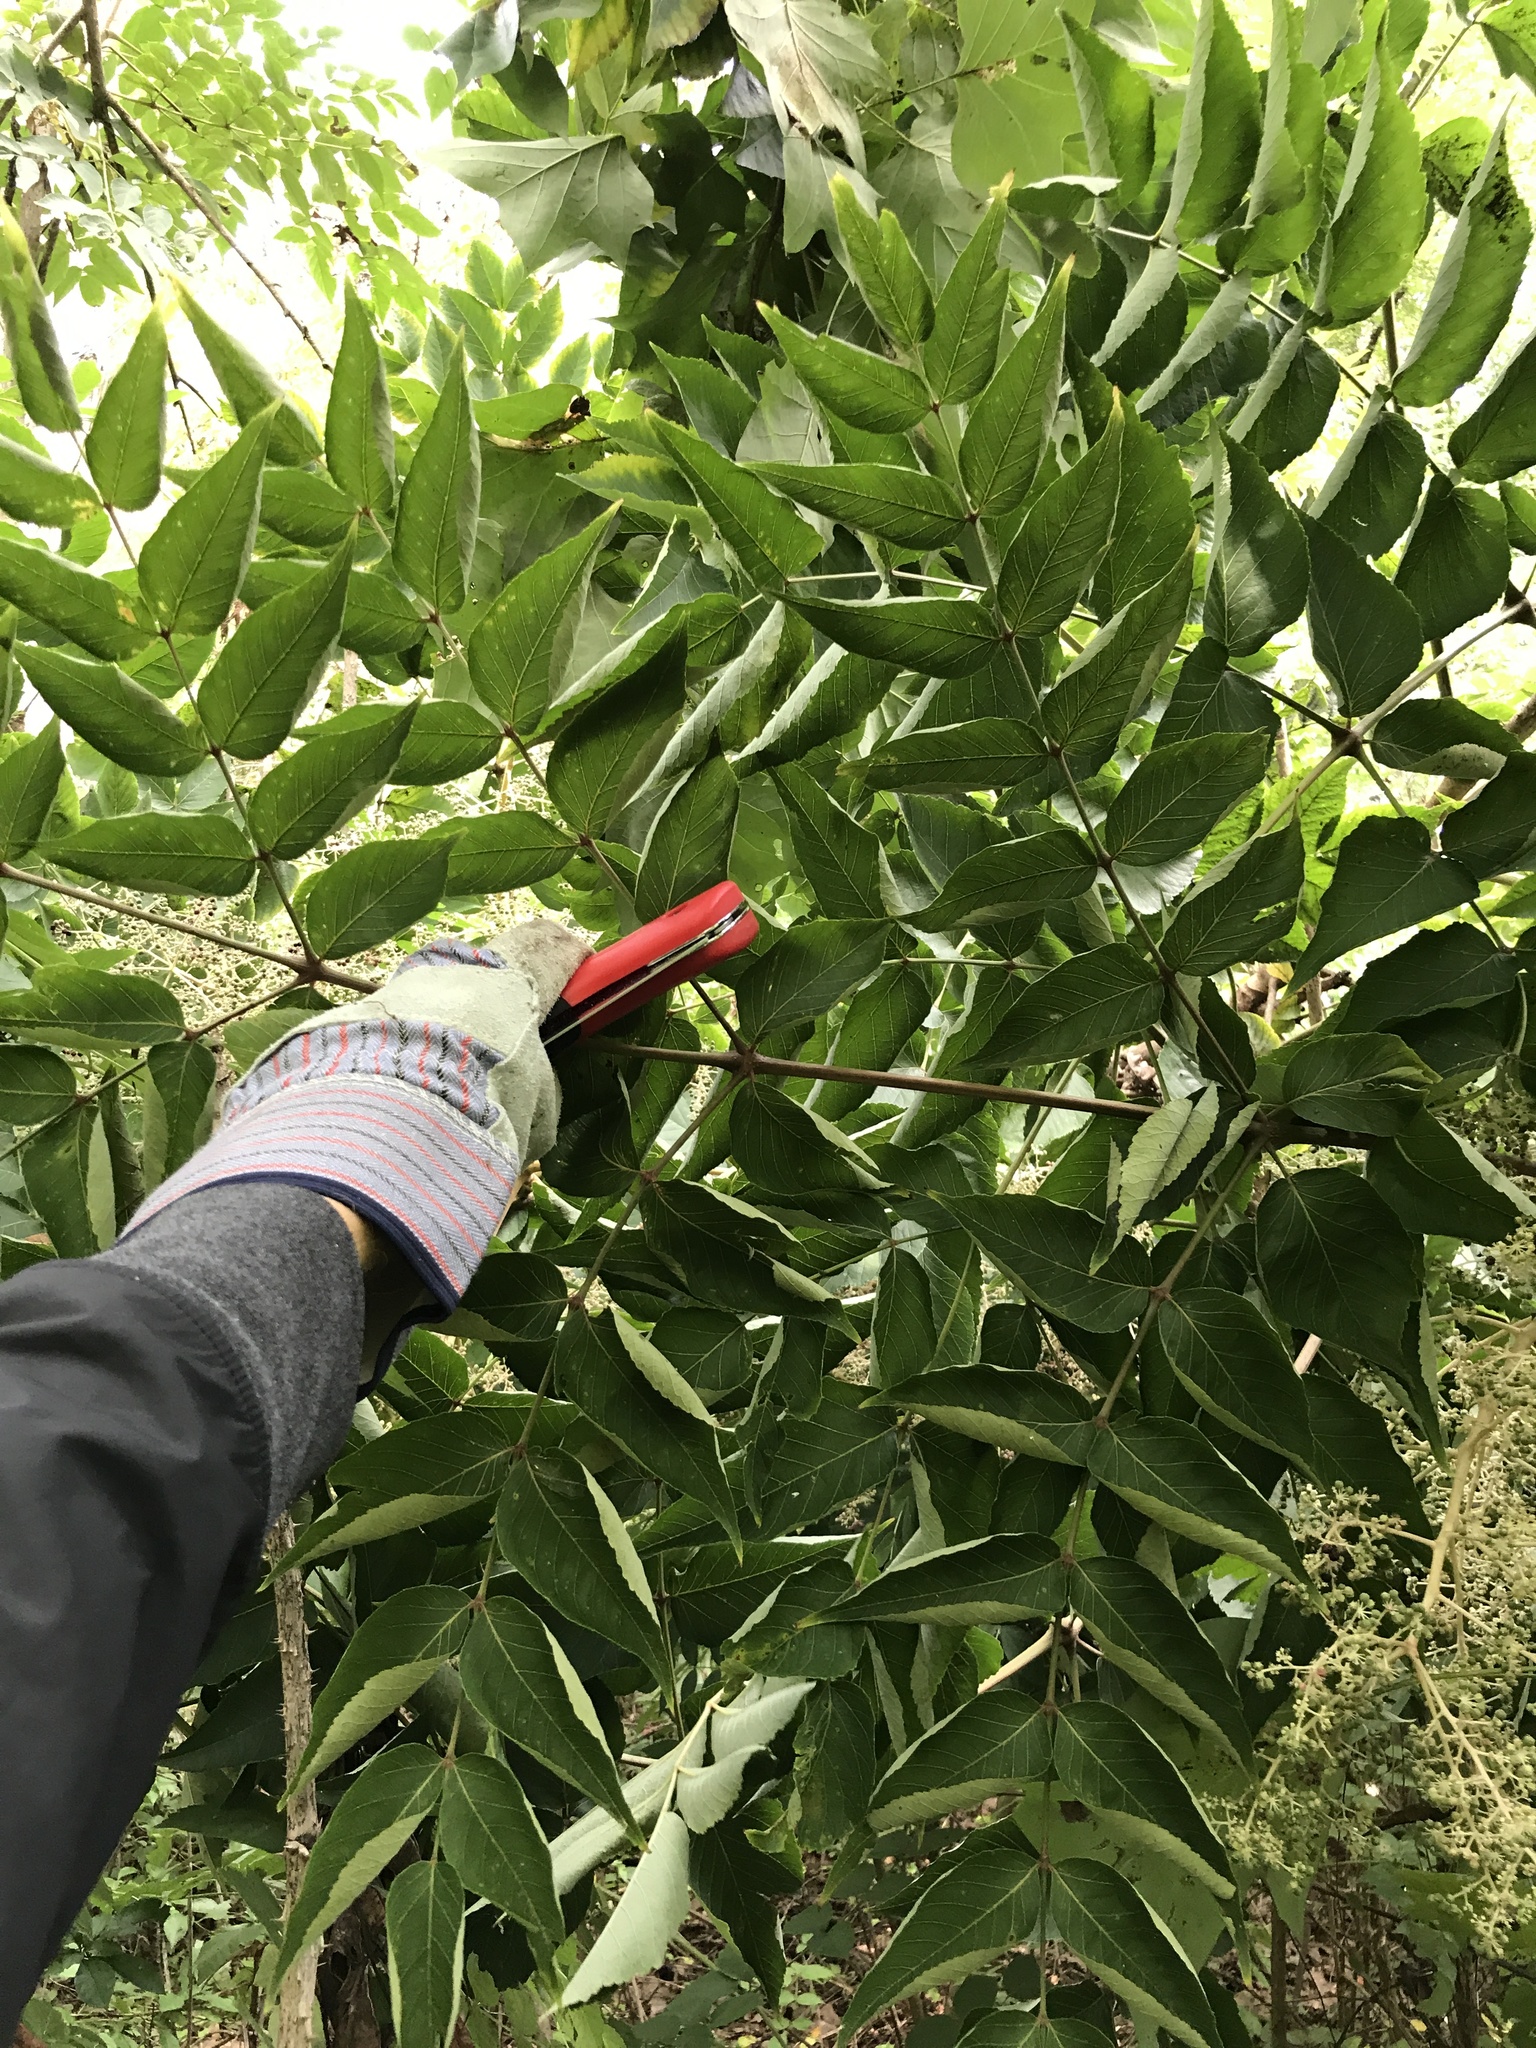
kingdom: Plantae
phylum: Tracheophyta
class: Magnoliopsida
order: Apiales
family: Araliaceae
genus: Aralia
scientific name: Aralia elata
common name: Japanese angelica-tree
